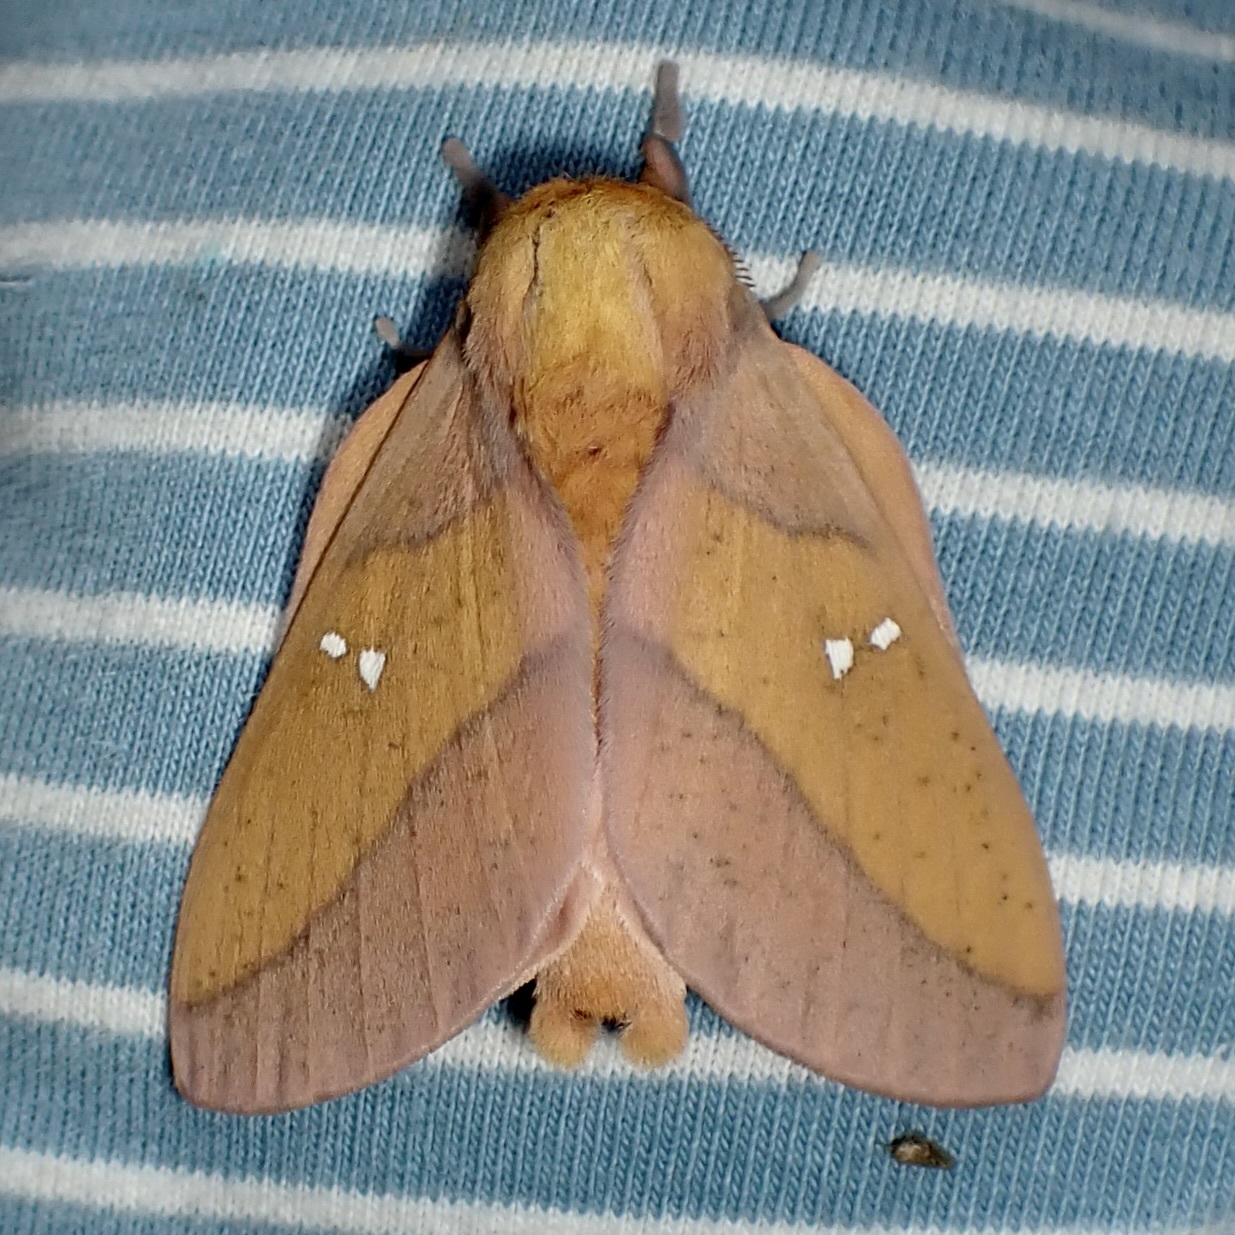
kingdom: Animalia
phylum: Arthropoda
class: Insecta
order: Lepidoptera
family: Saturniidae
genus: Syssphinx
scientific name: Syssphinx montana
